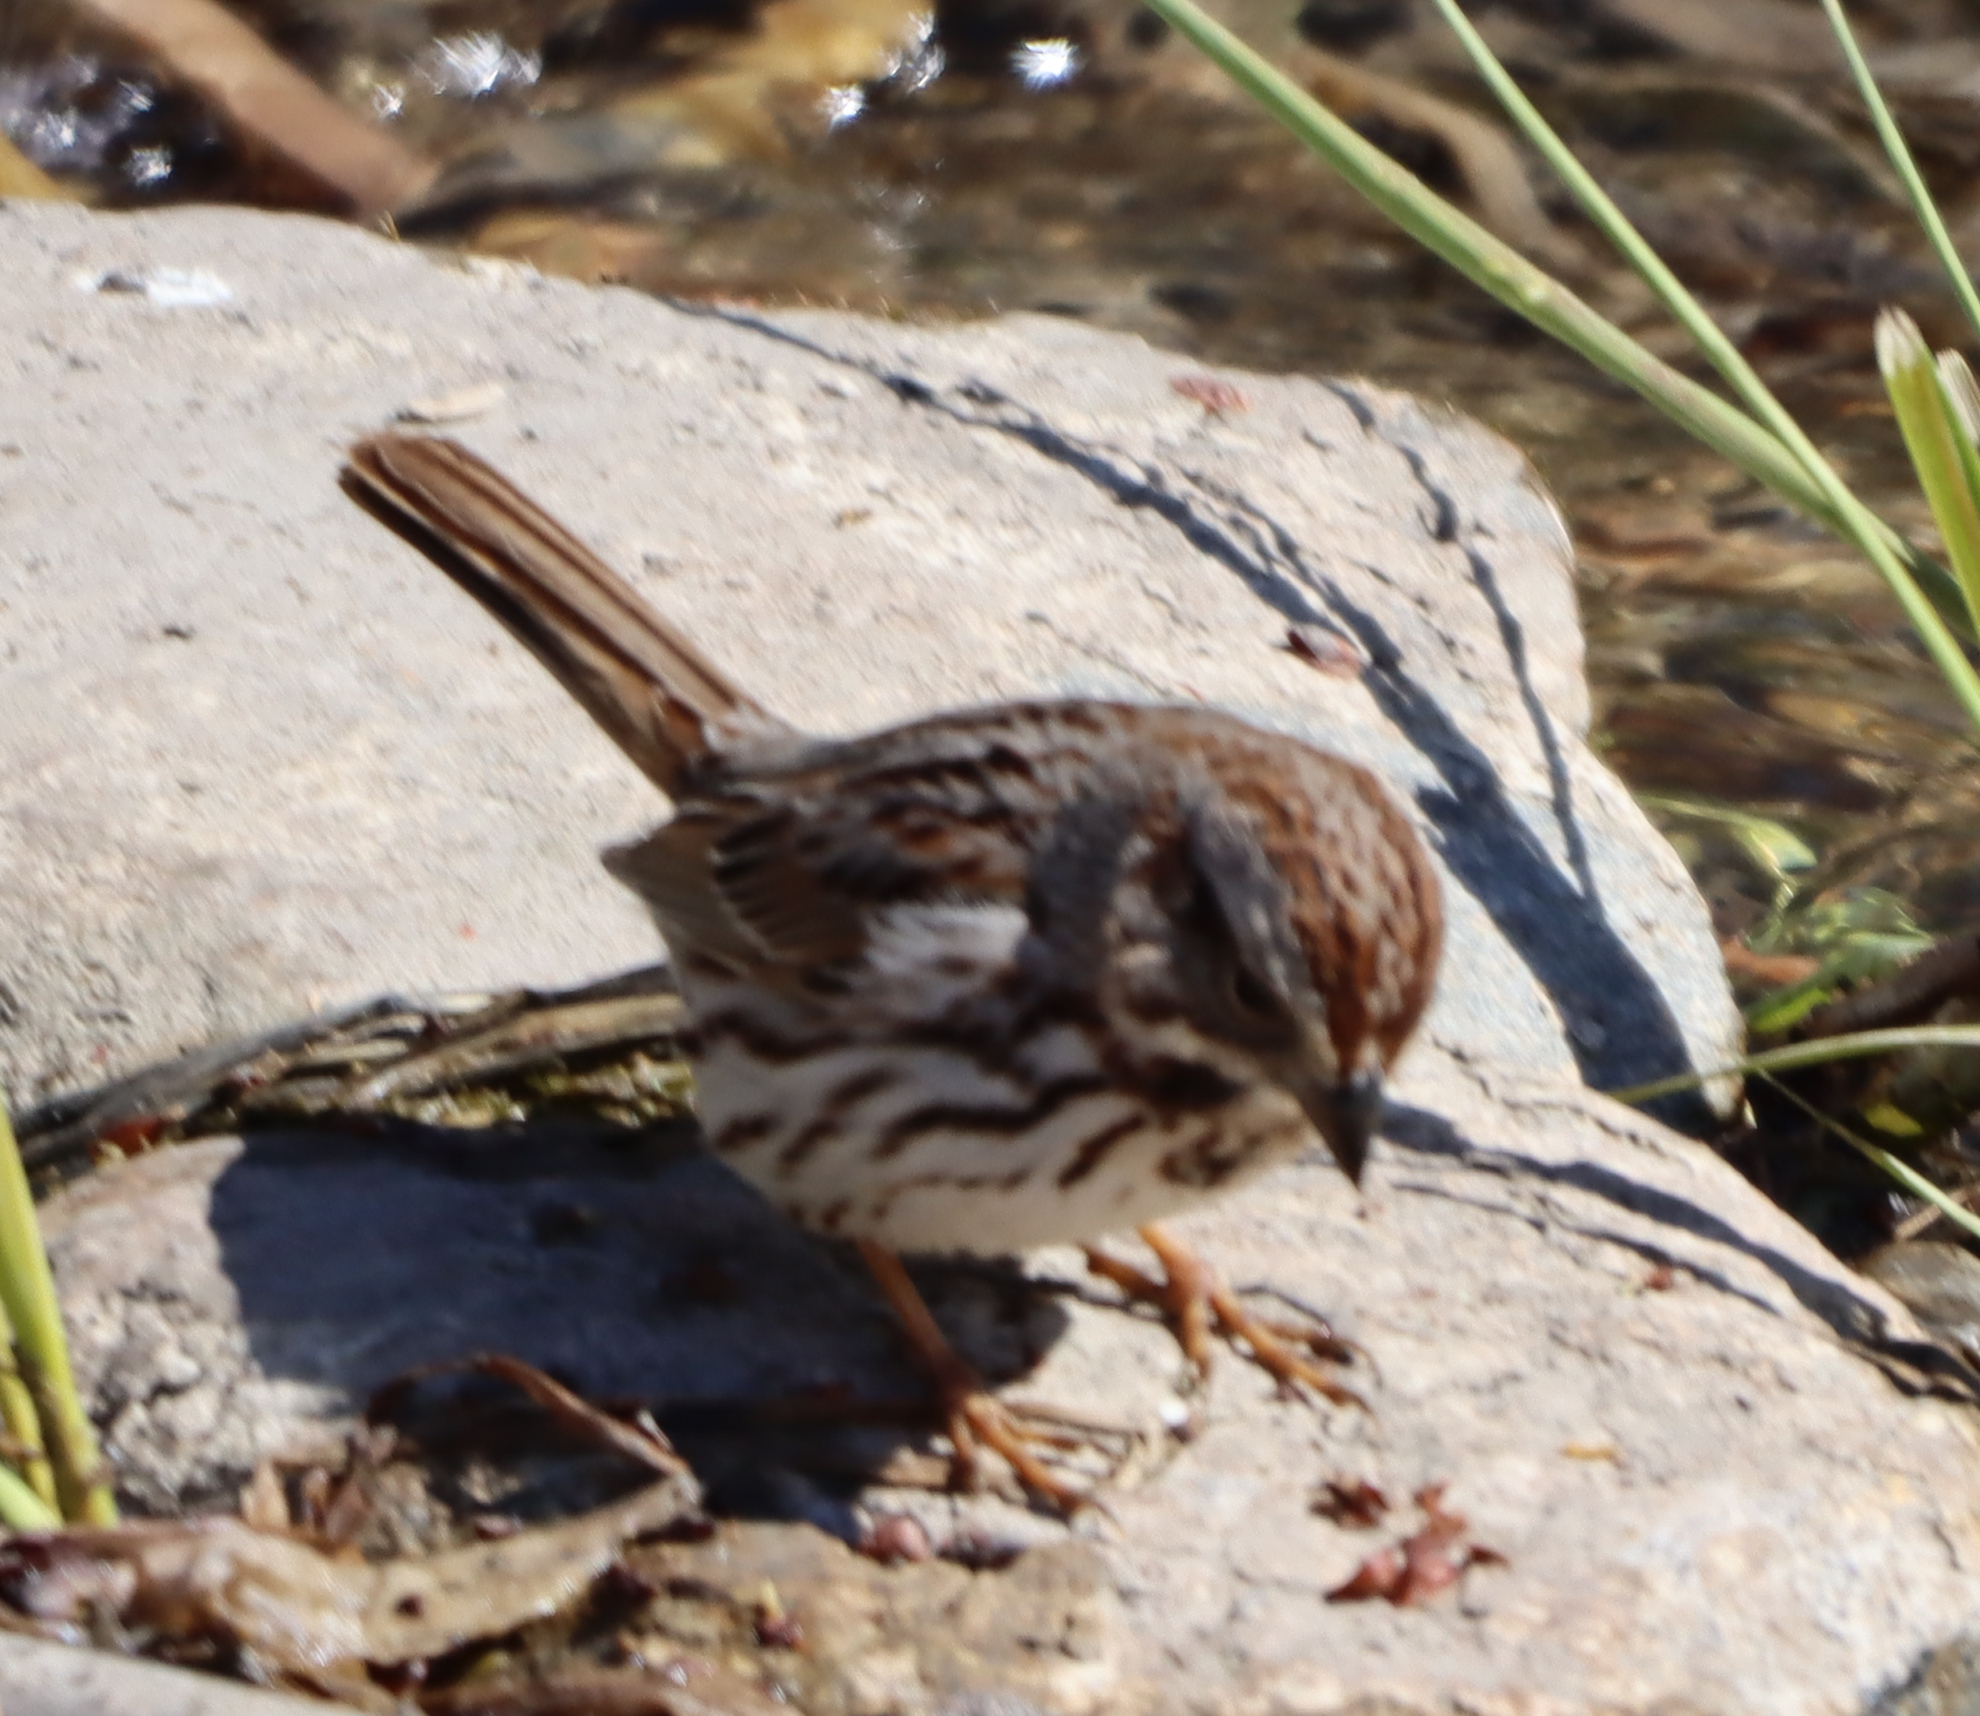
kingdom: Animalia
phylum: Chordata
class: Aves
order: Passeriformes
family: Passerellidae
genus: Melospiza
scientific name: Melospiza melodia
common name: Song sparrow
